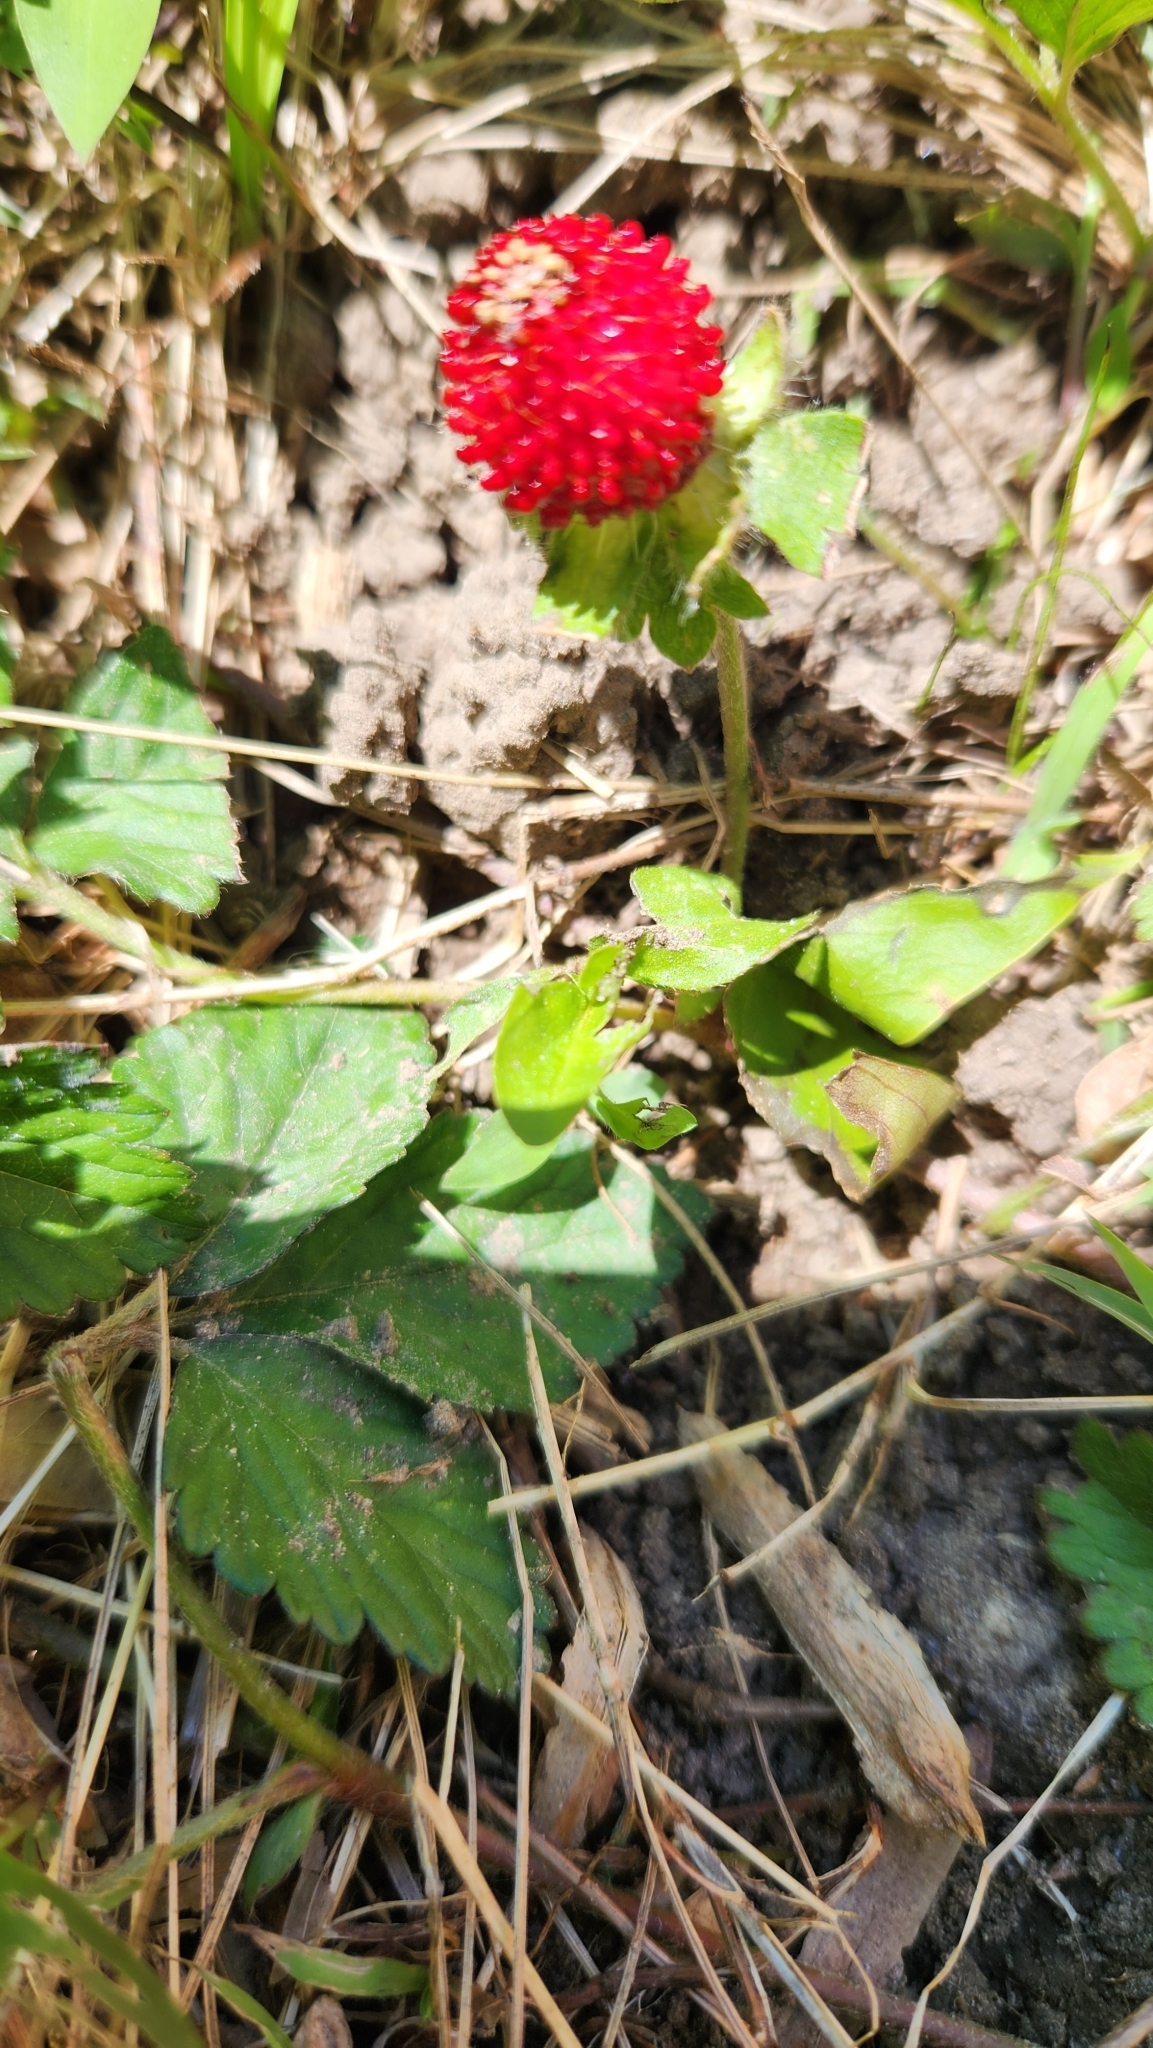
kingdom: Plantae
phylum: Tracheophyta
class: Magnoliopsida
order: Rosales
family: Rosaceae
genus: Potentilla
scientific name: Potentilla indica
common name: Yellow-flowered strawberry
